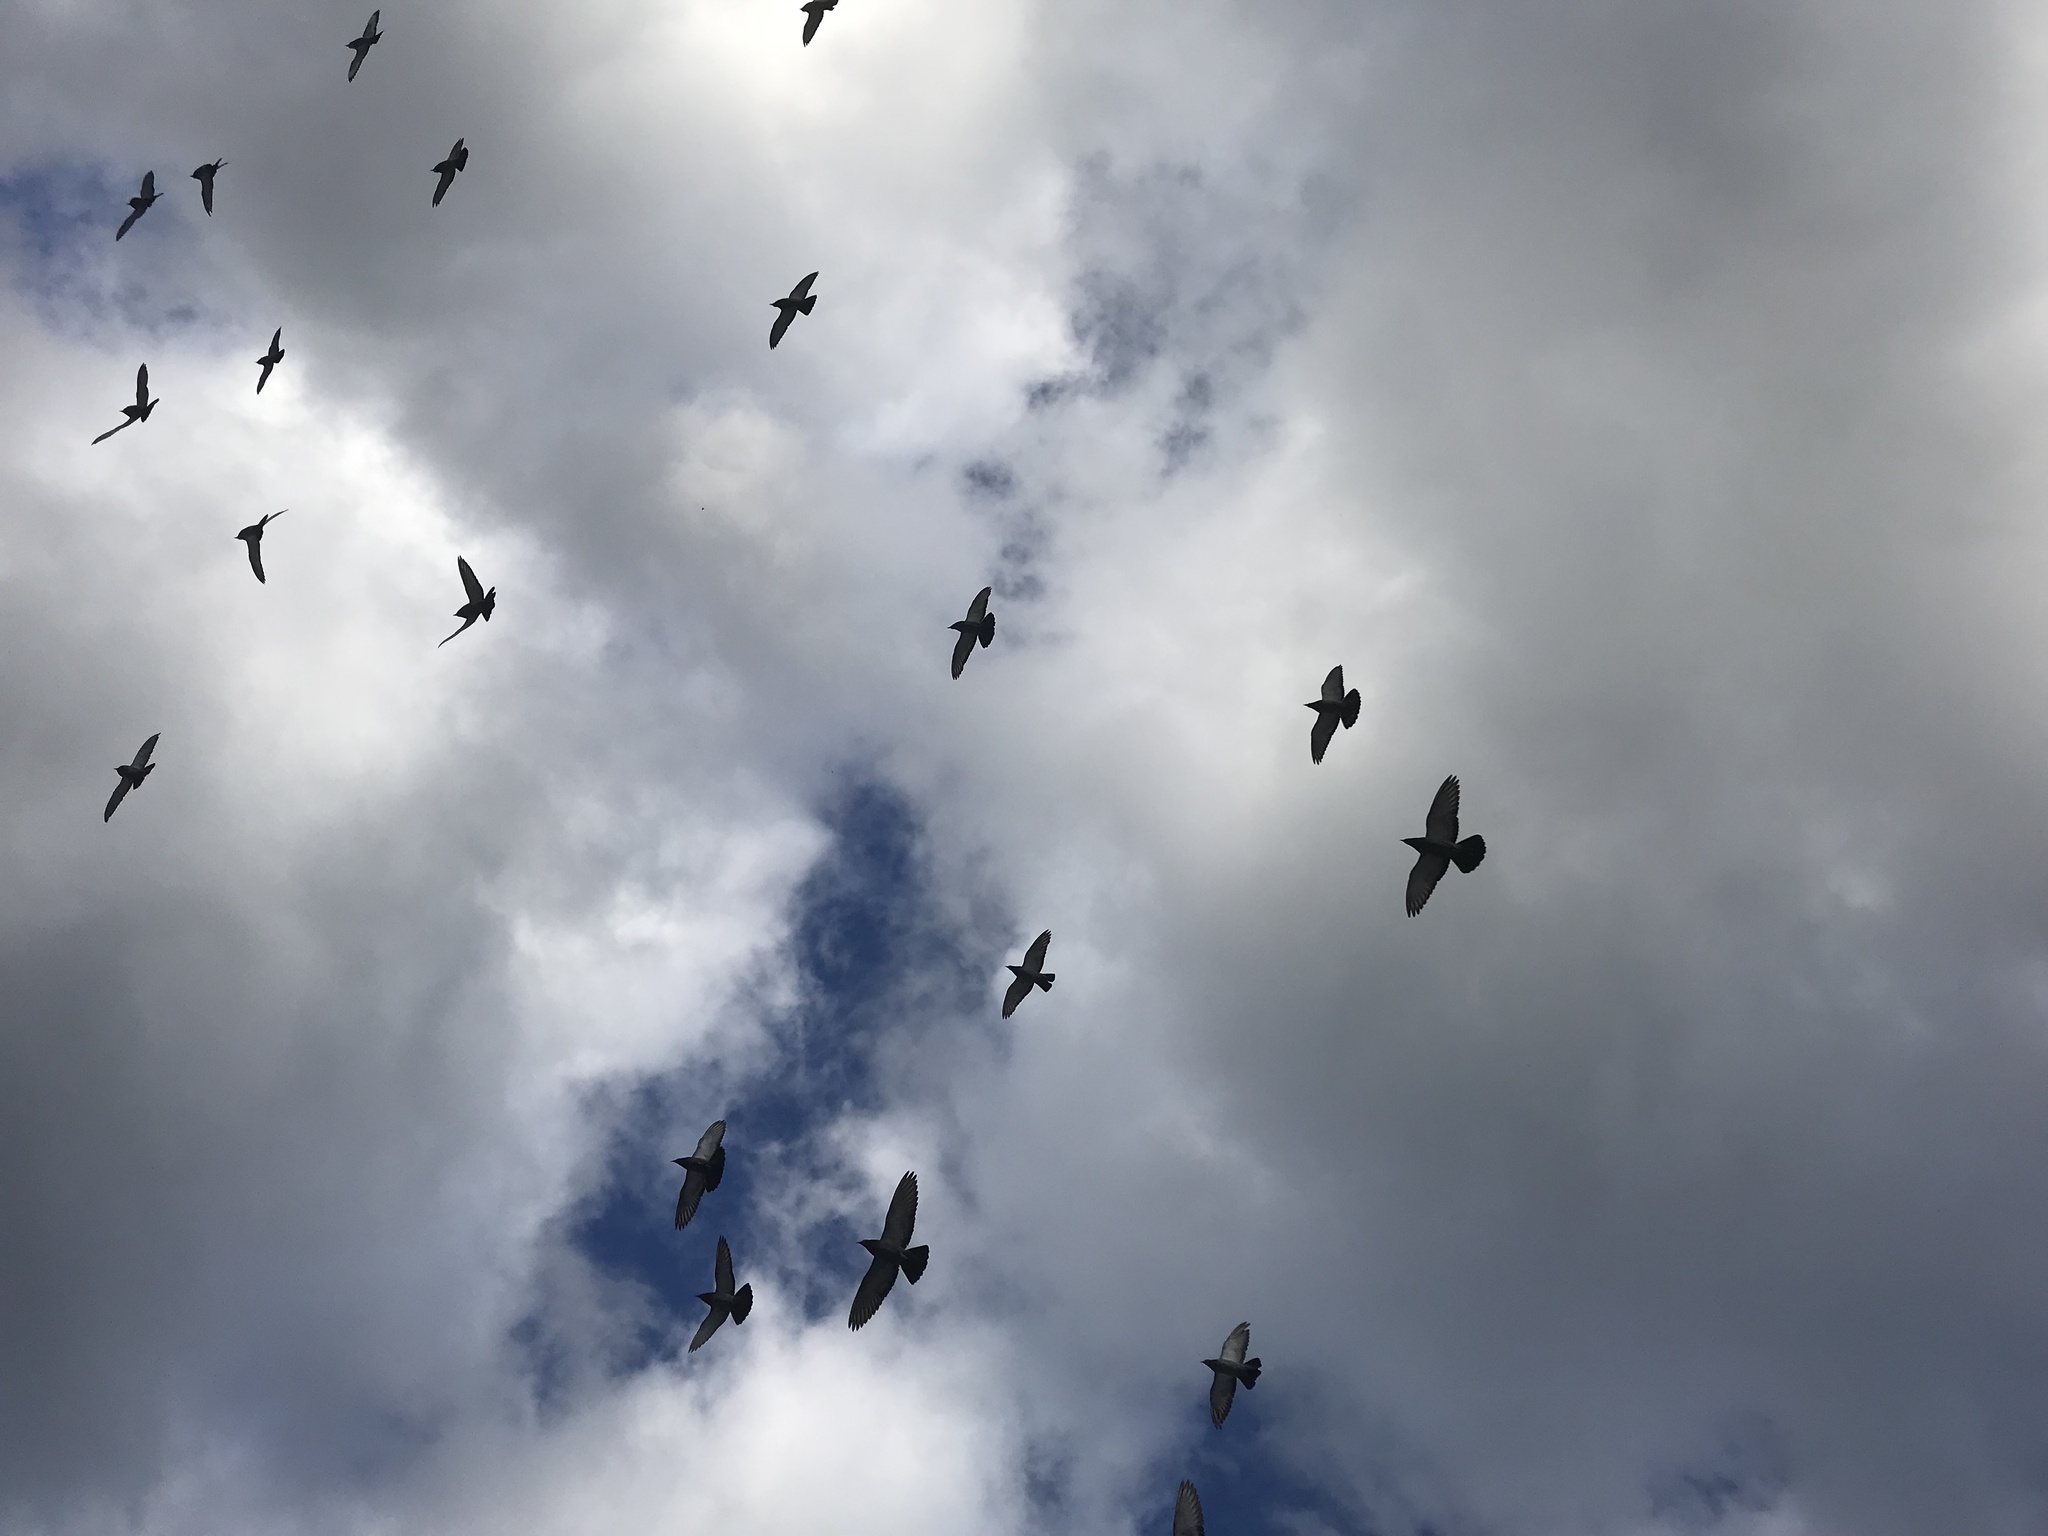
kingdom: Animalia
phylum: Chordata
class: Aves
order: Columbiformes
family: Columbidae
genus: Columba
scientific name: Columba livia
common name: Rock pigeon
